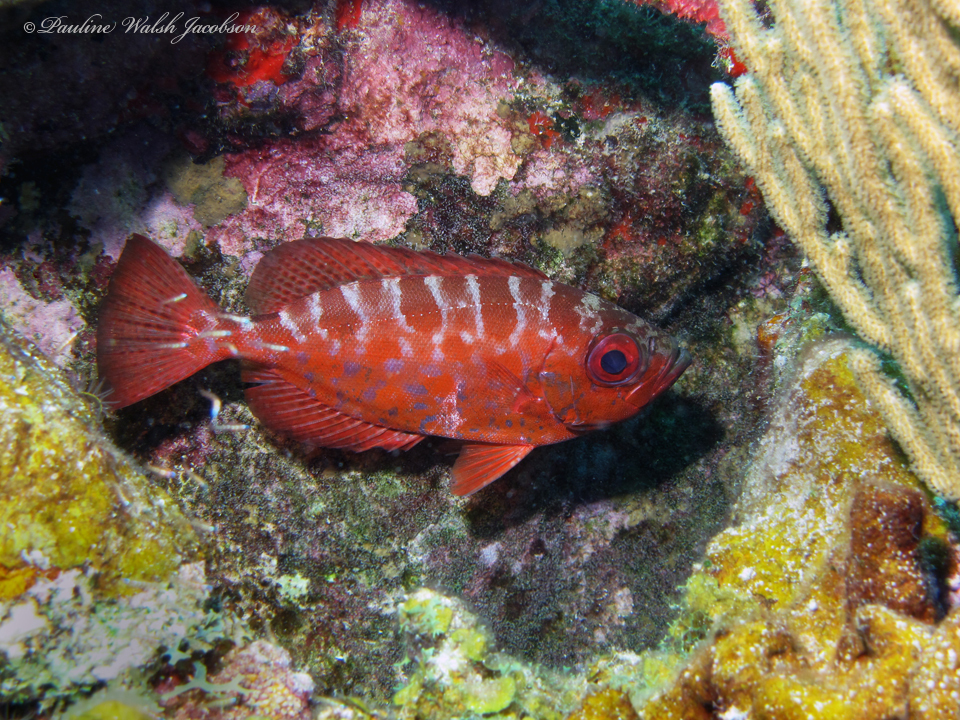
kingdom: Animalia
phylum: Chordata
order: Perciformes
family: Priacanthidae
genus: Heteropriacanthus
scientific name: Heteropriacanthus cruentatus
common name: Glasseye
